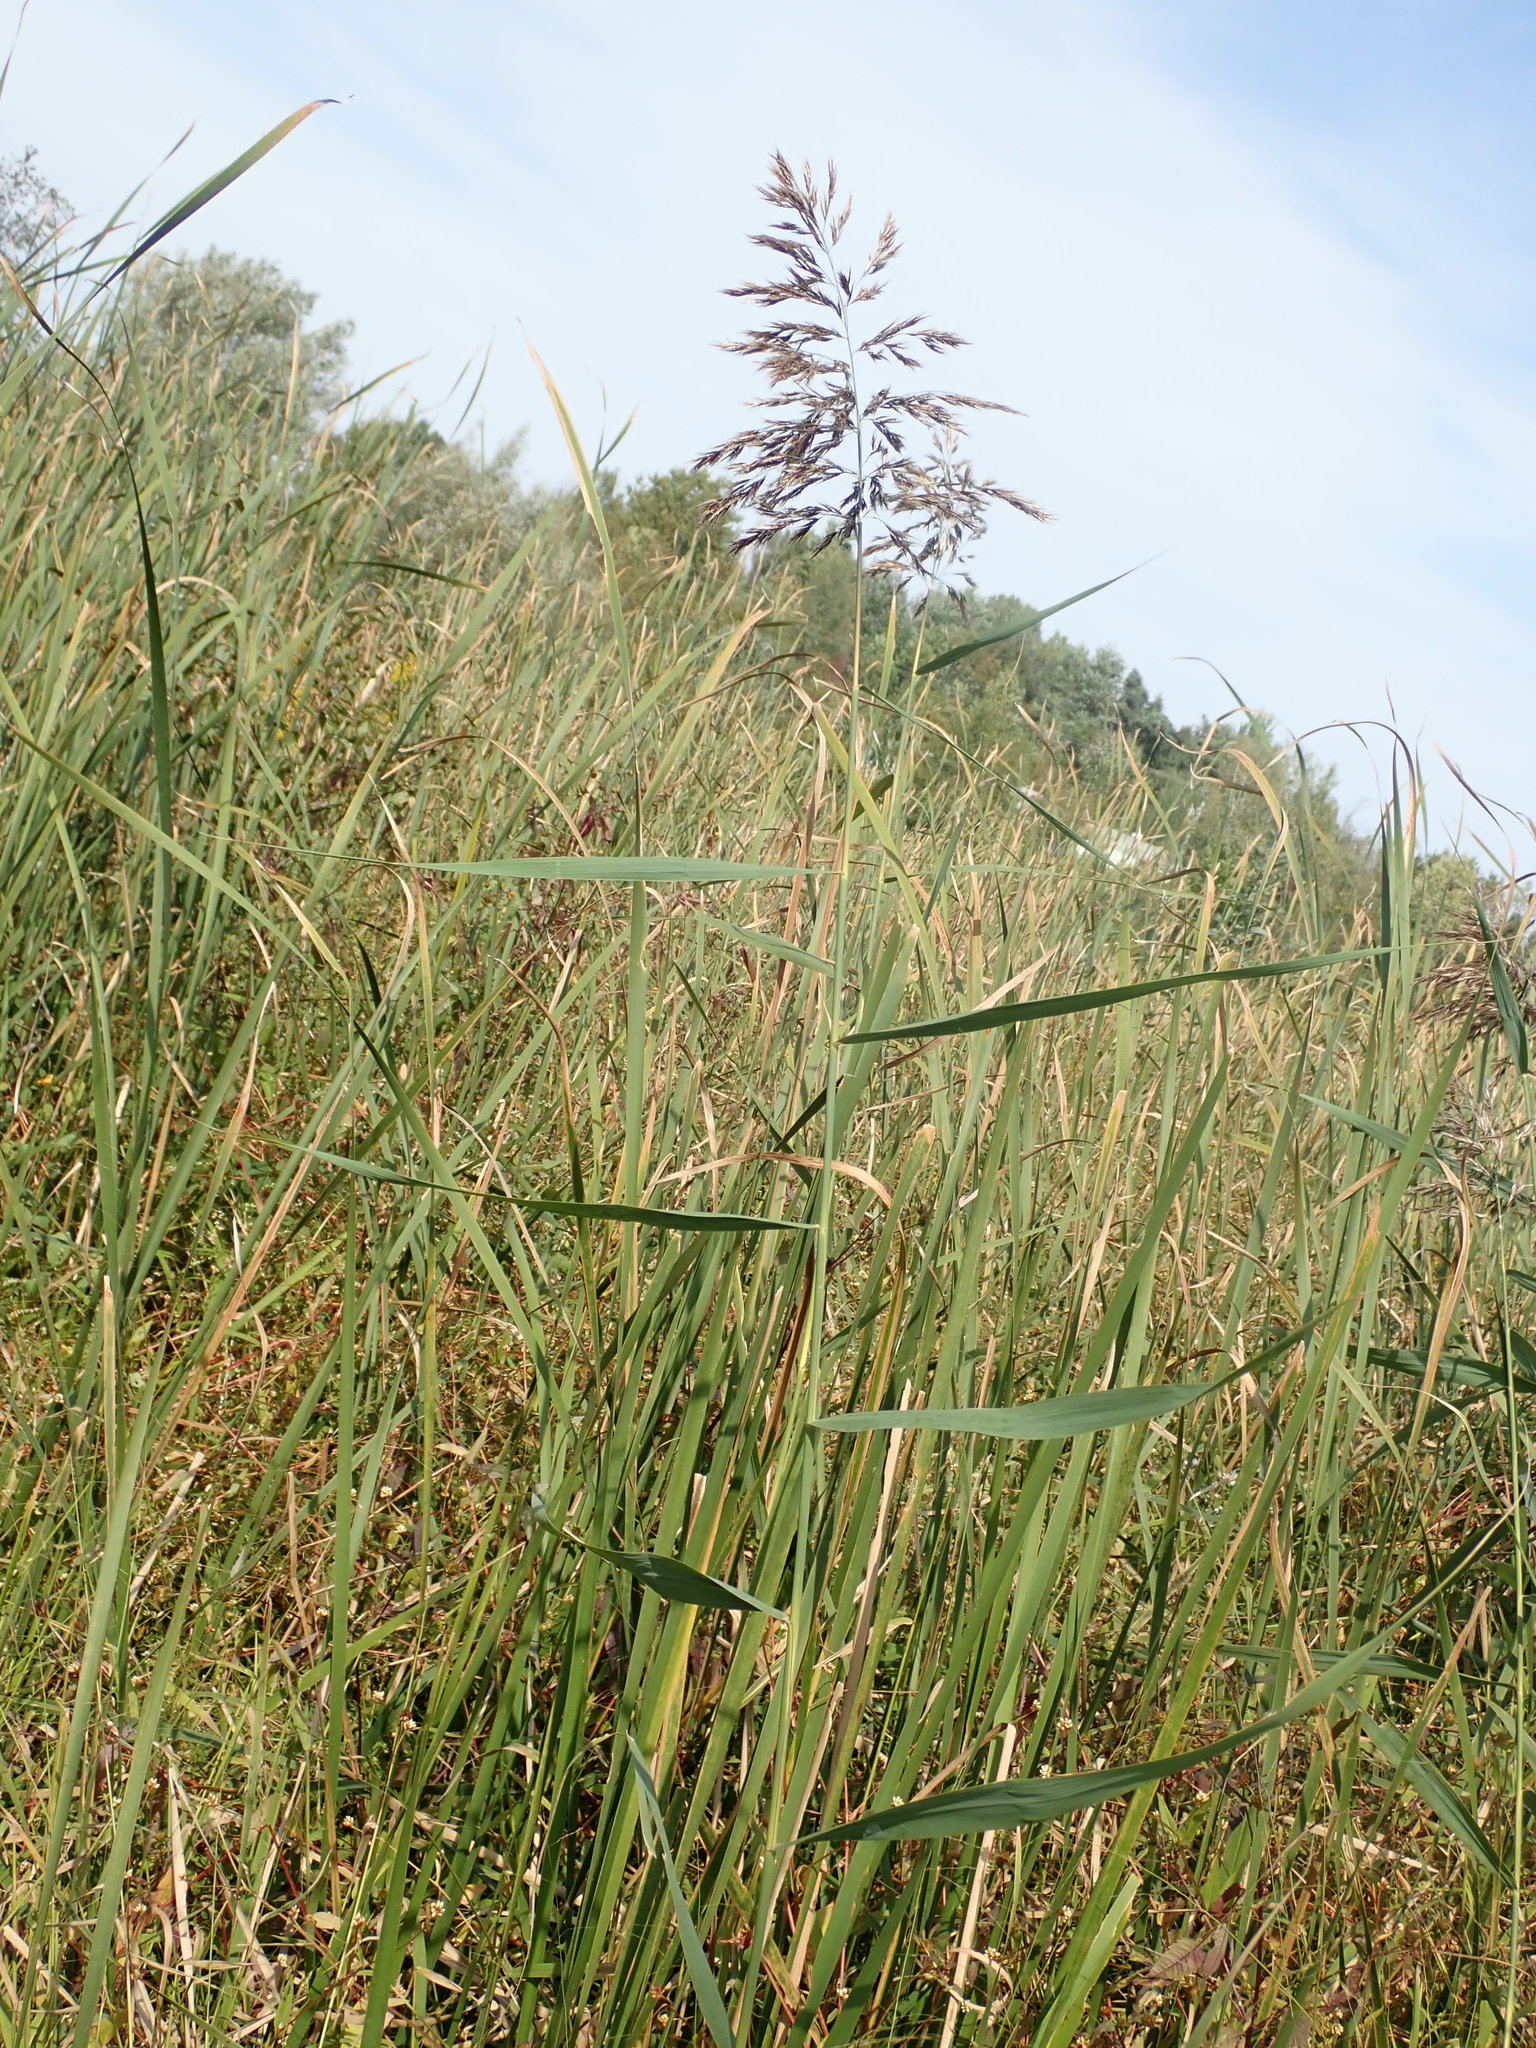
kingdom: Plantae
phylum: Tracheophyta
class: Liliopsida
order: Poales
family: Poaceae
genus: Phragmites
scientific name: Phragmites australis
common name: Common reed
